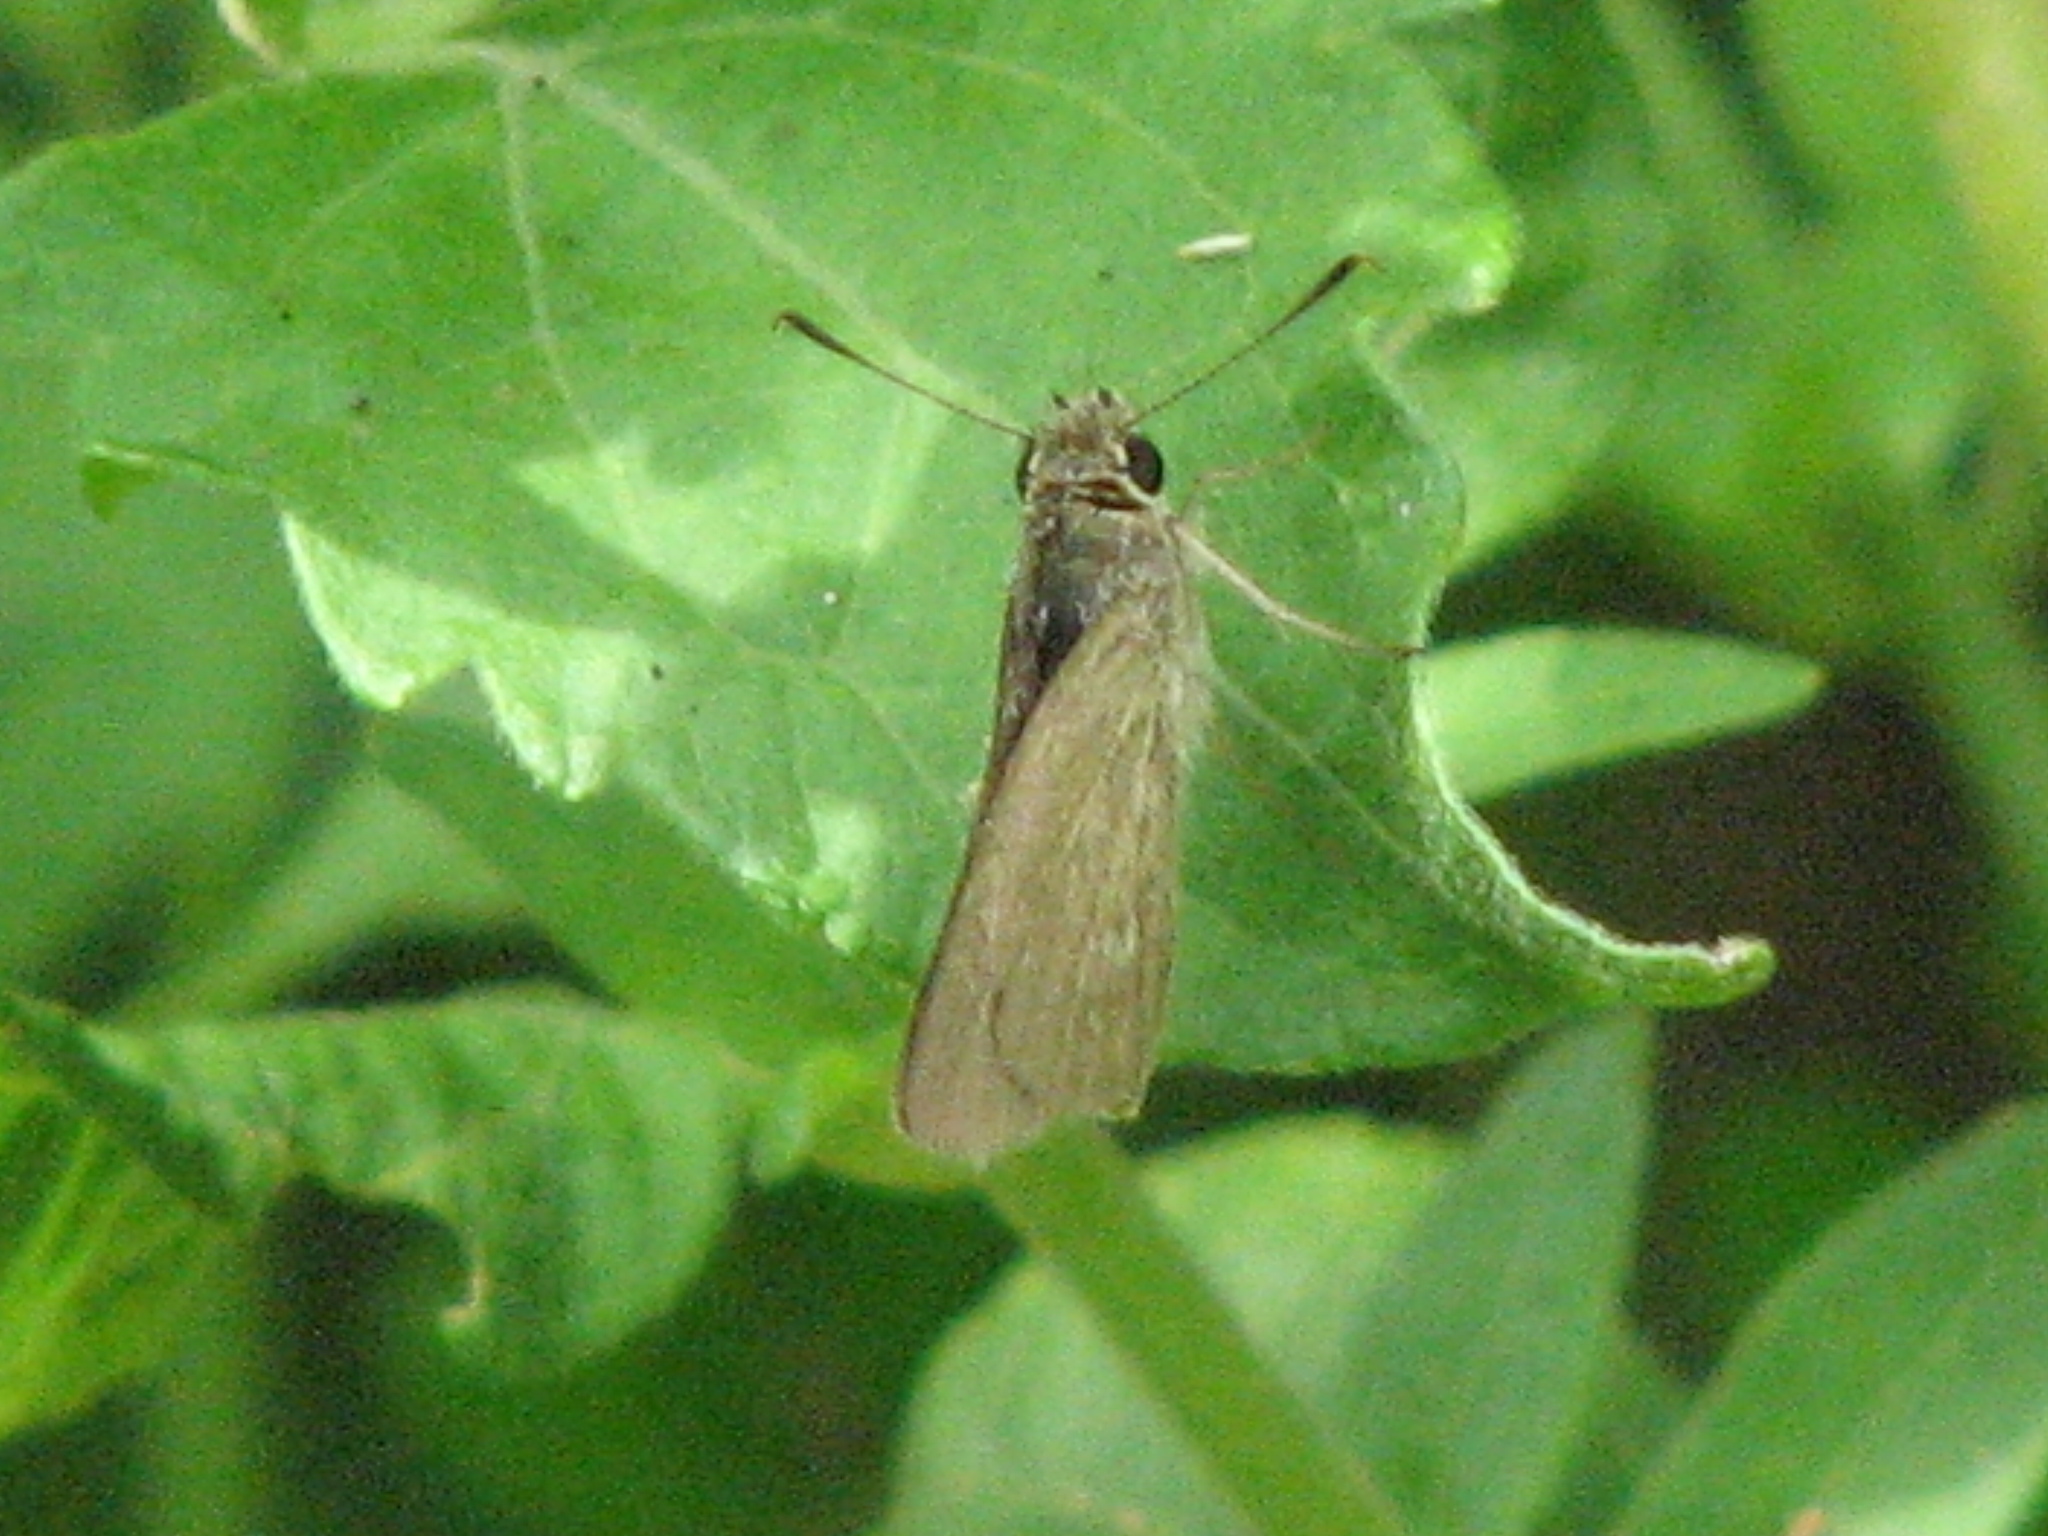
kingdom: Animalia
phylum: Arthropoda
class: Insecta
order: Lepidoptera
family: Hesperiidae
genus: Lerodea
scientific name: Lerodea eufala
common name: Eufala skipper
